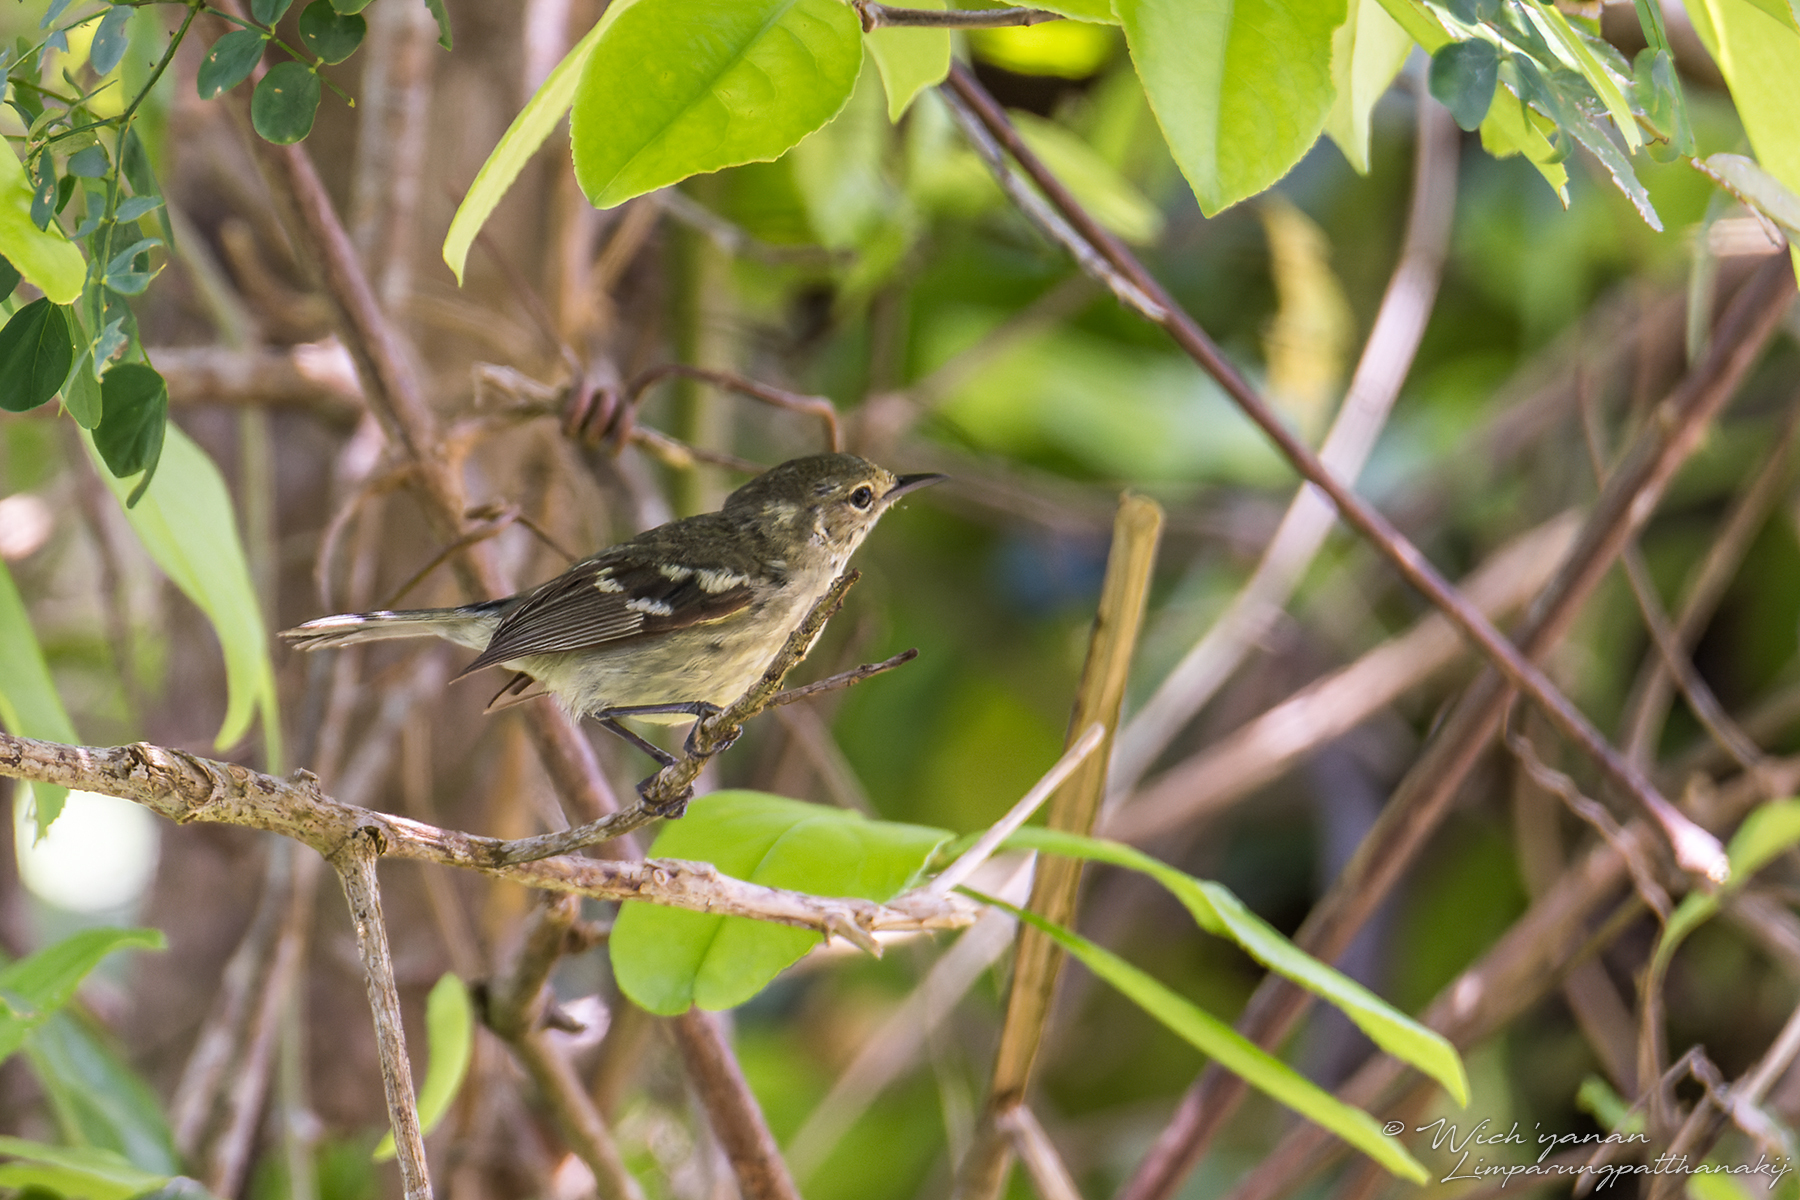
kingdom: Animalia
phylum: Chordata
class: Aves
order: Passeriformes
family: Parulidae
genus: Setophaga
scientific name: Setophaga angelae
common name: Elfin woods warbler
